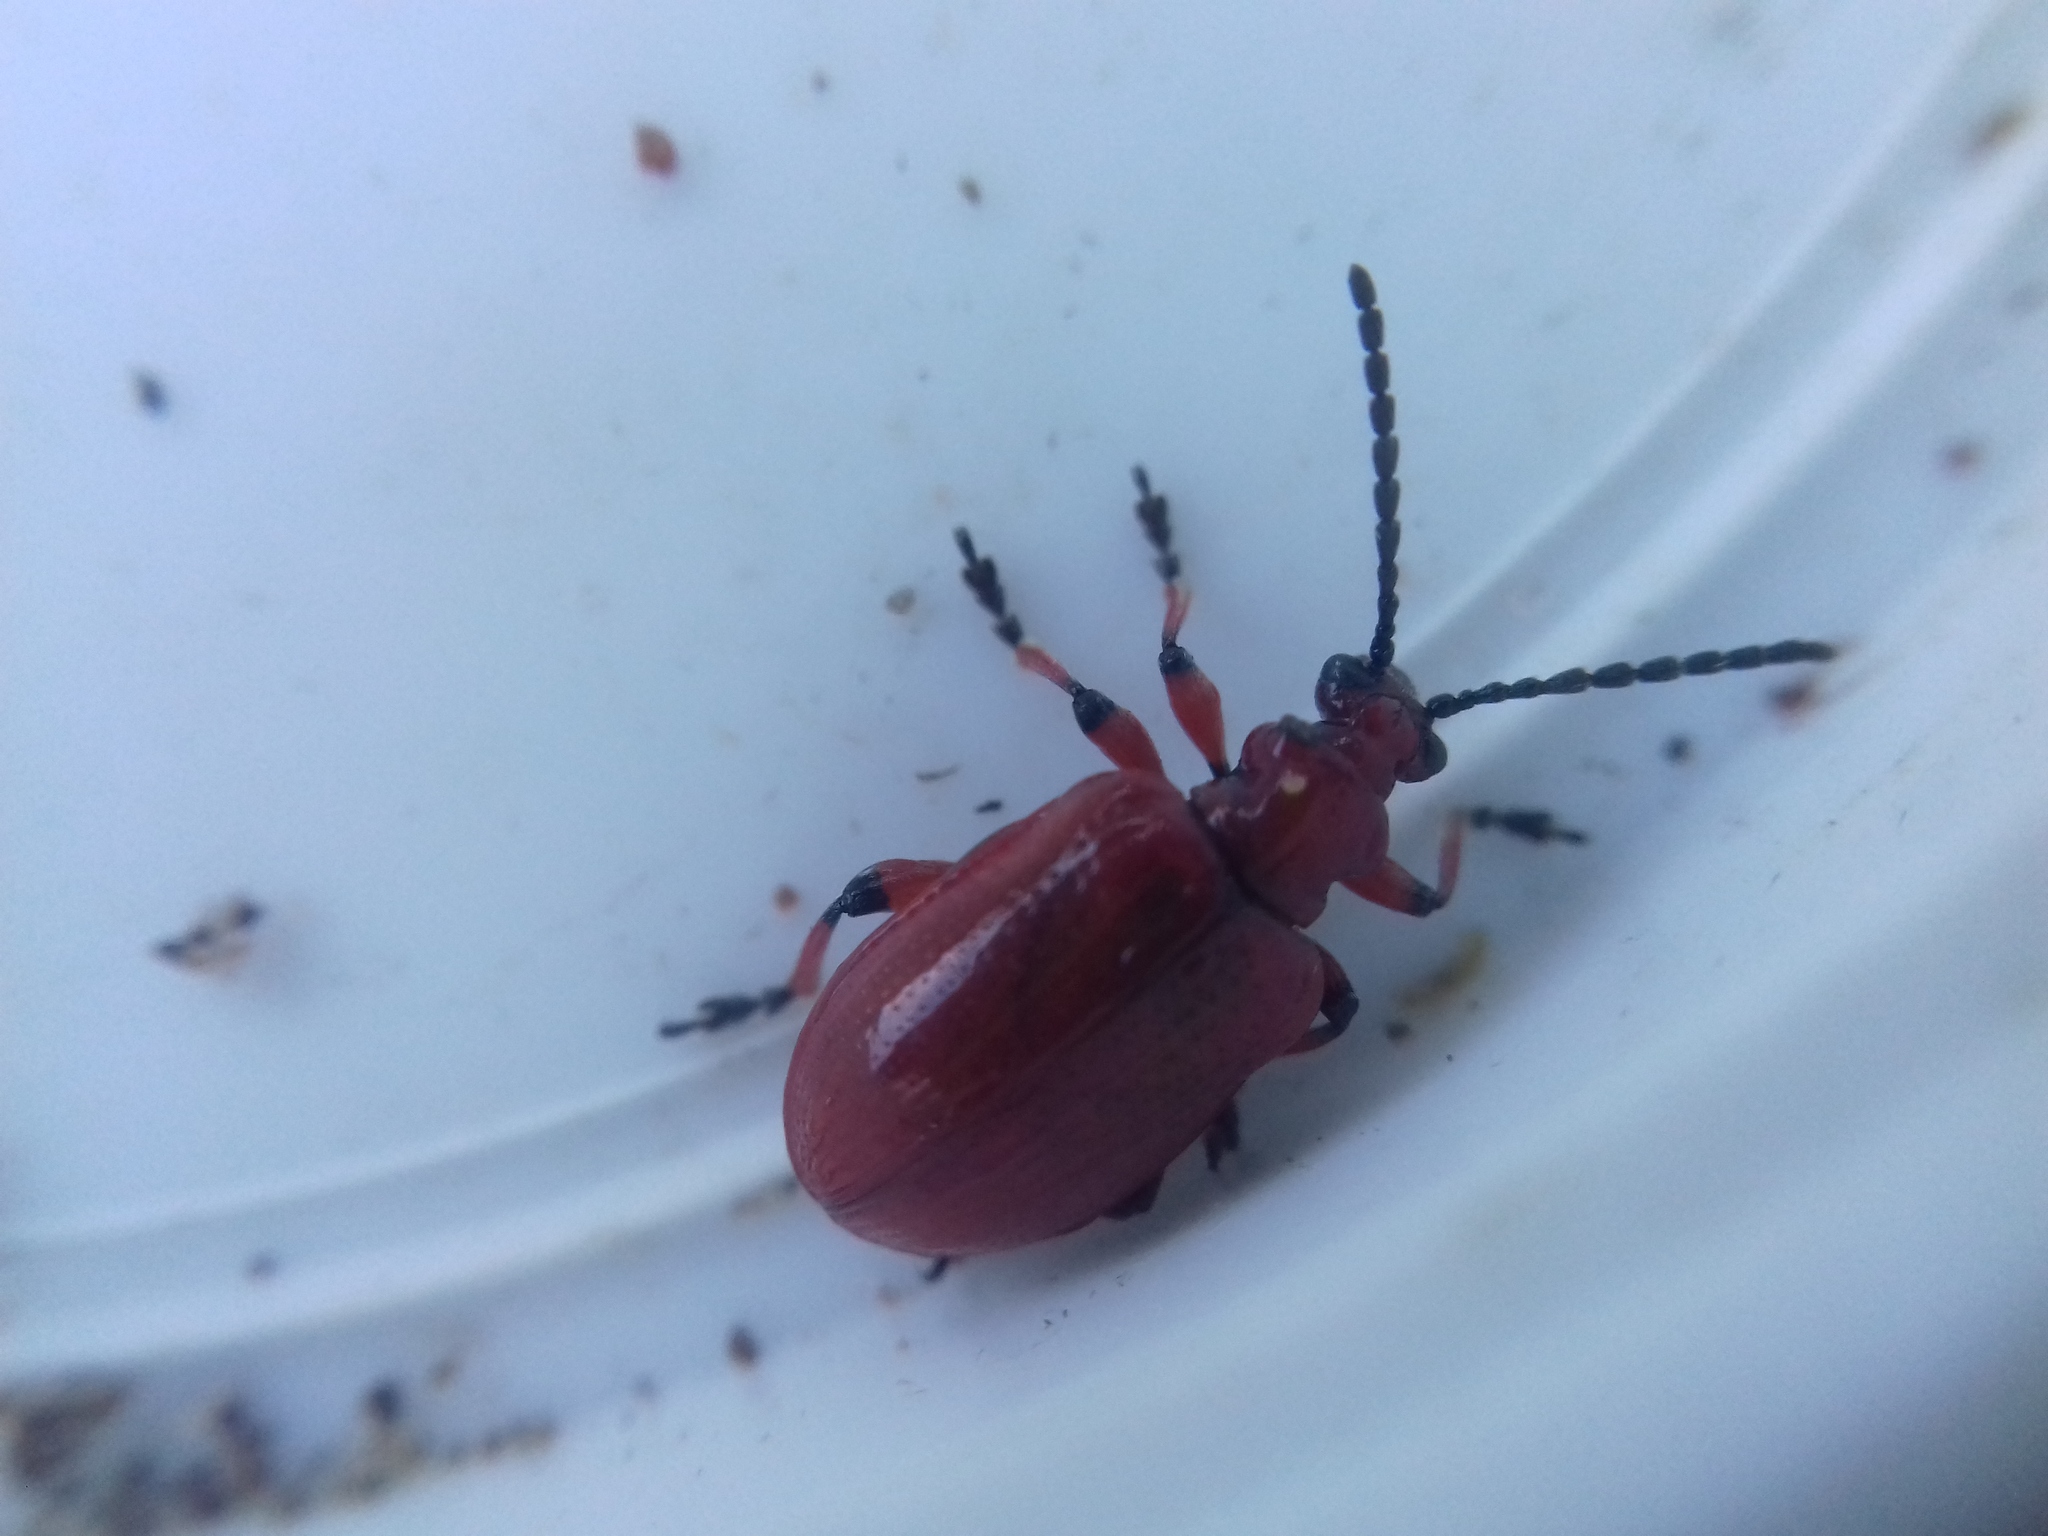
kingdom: Animalia
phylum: Arthropoda
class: Insecta
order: Coleoptera
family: Chrysomelidae
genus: Lilioceris
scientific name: Lilioceris merdigera
